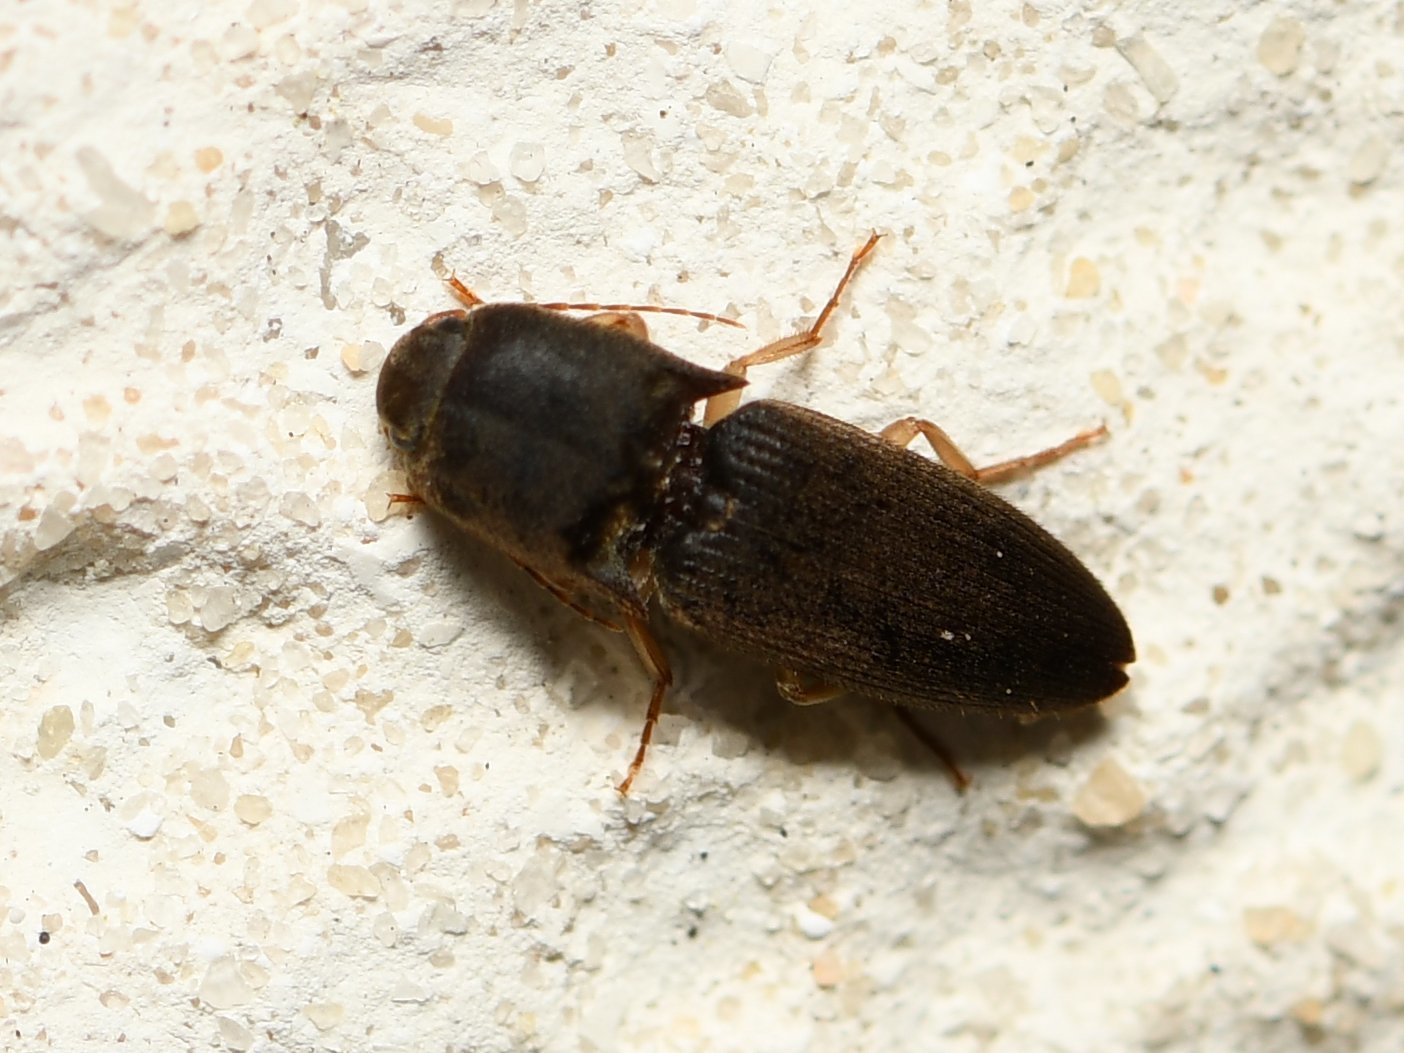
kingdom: Animalia
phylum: Arthropoda
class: Insecta
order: Coleoptera
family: Elateridae
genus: Heteroderes
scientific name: Heteroderes amplicollis
